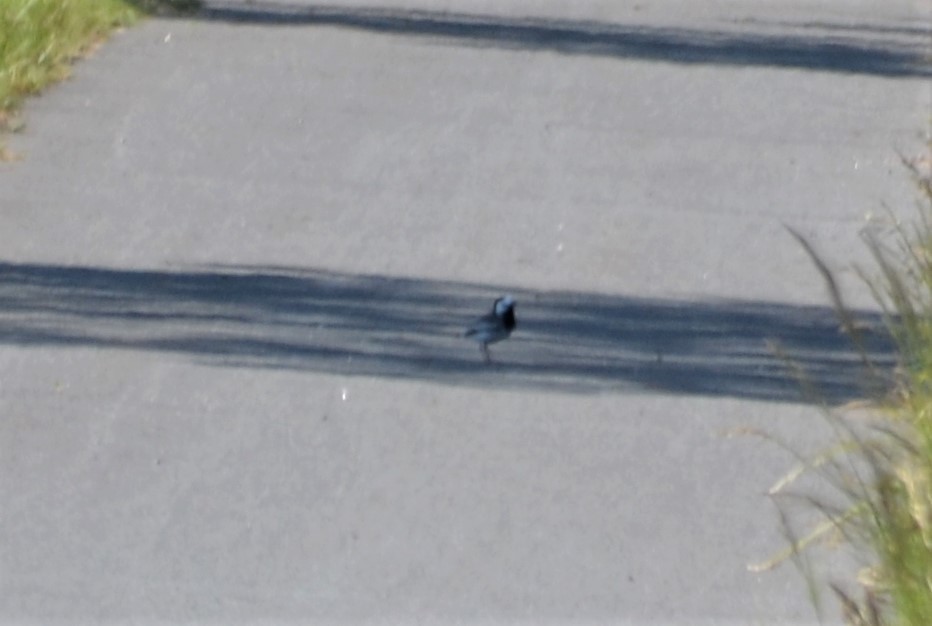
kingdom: Animalia
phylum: Chordata
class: Aves
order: Passeriformes
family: Motacillidae
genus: Motacilla
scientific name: Motacilla alba
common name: White wagtail
